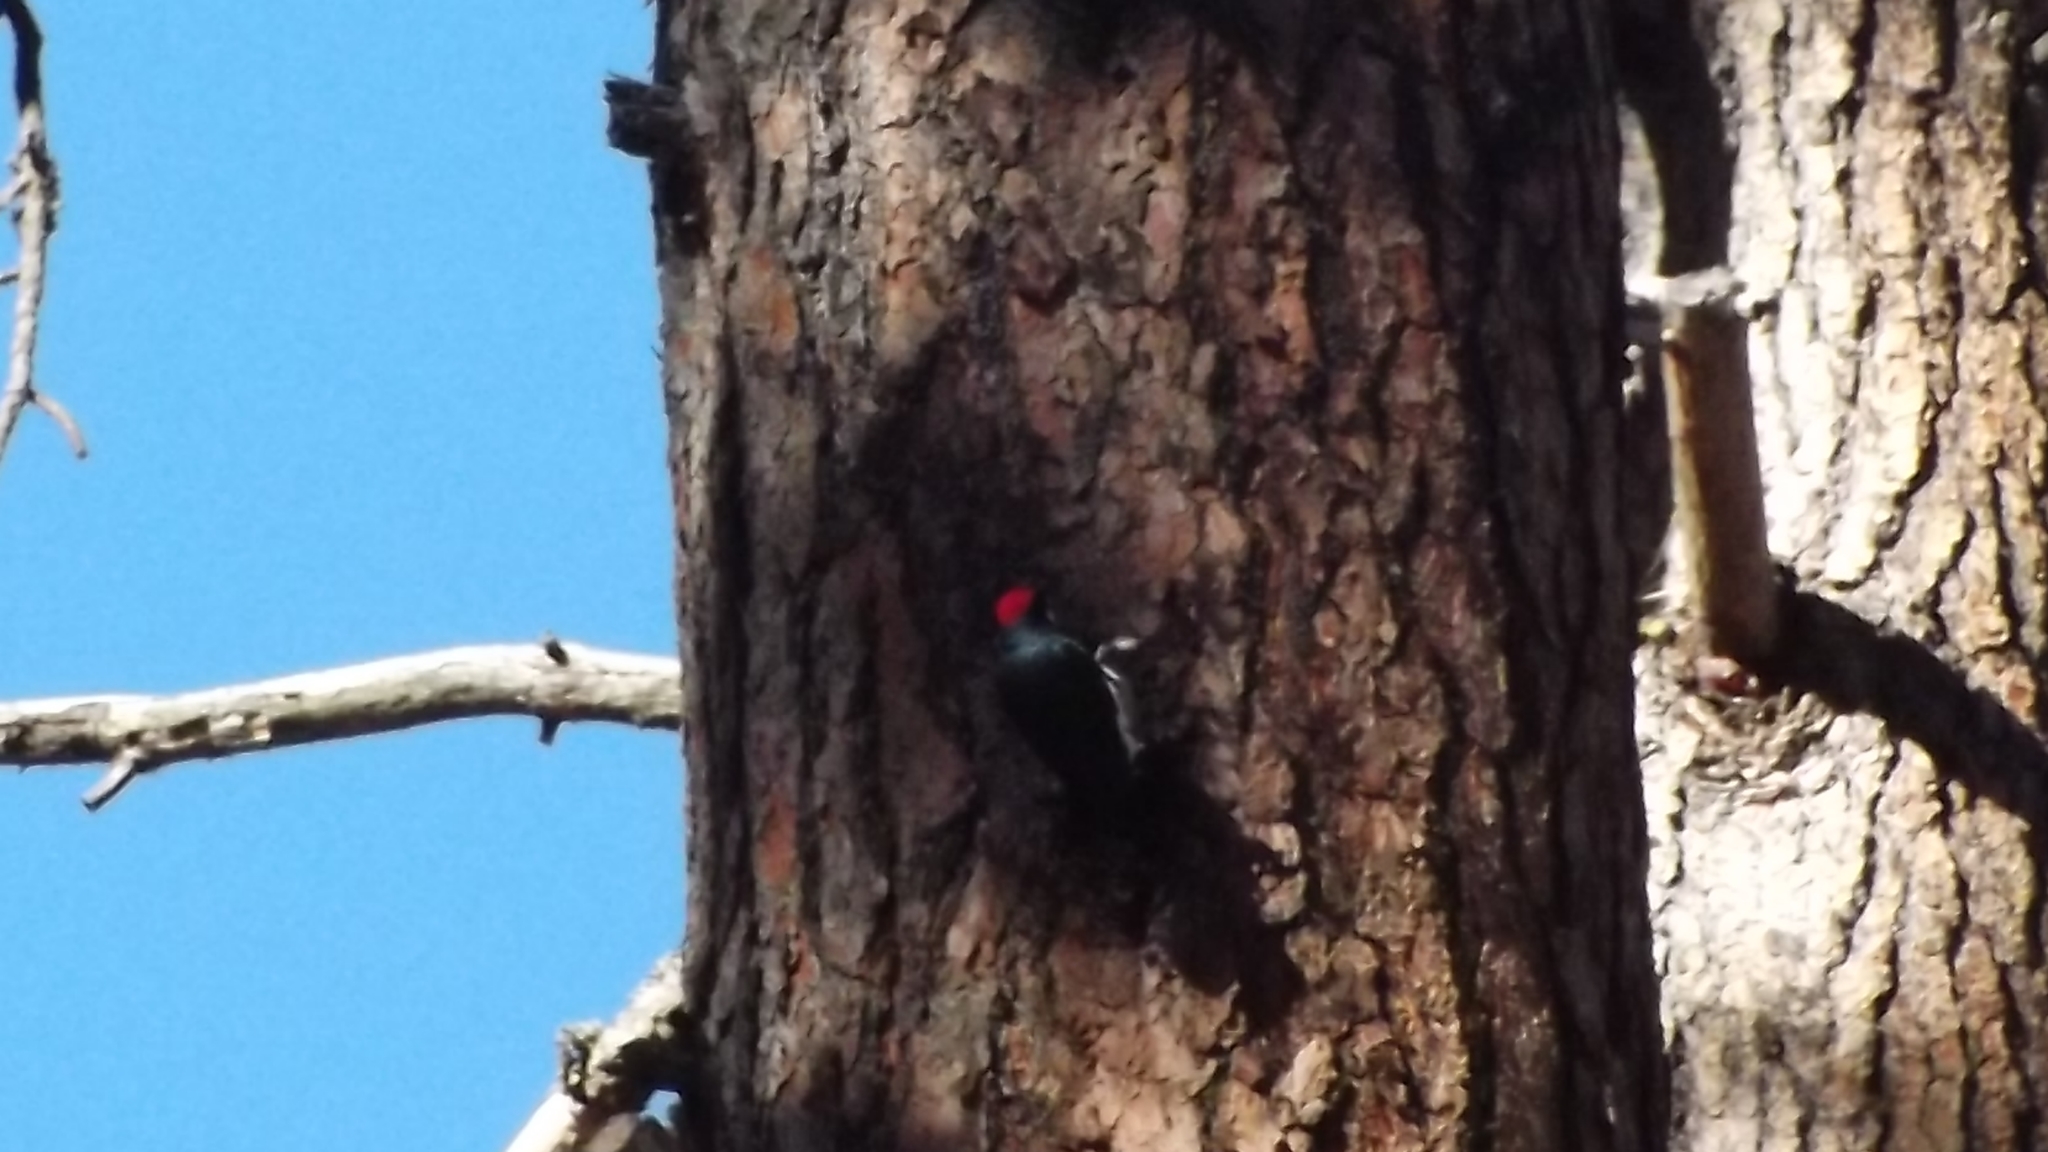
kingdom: Animalia
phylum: Chordata
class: Aves
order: Piciformes
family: Picidae
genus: Melanerpes
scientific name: Melanerpes formicivorus
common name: Acorn woodpecker
